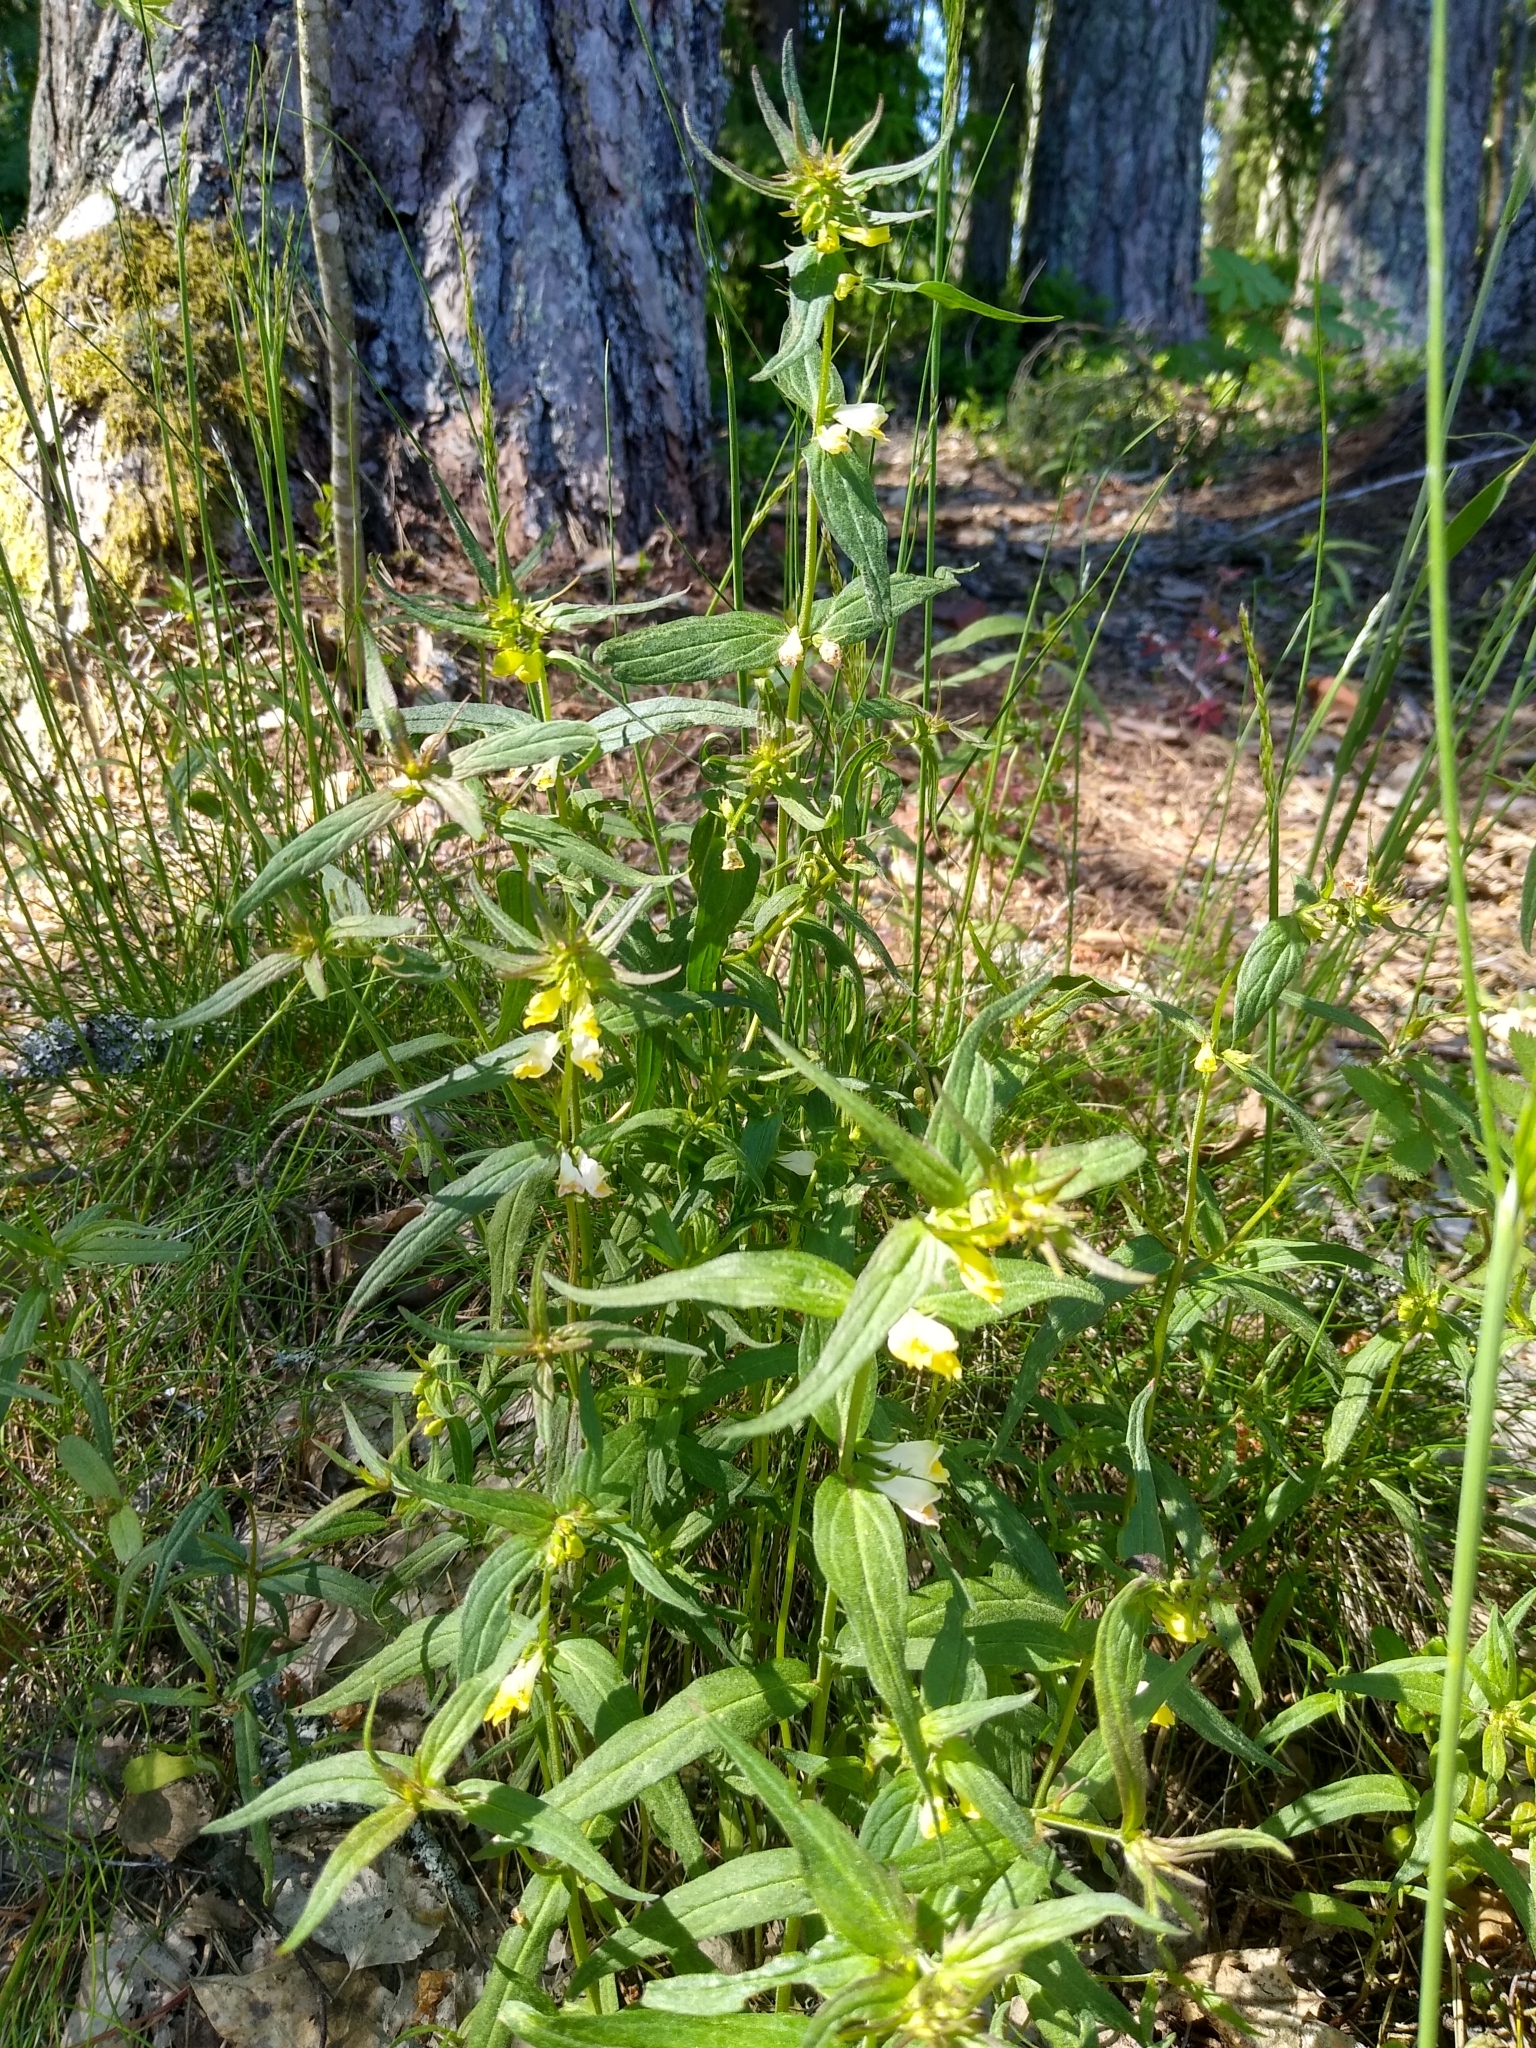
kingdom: Plantae
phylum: Tracheophyta
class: Magnoliopsida
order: Lamiales
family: Orobanchaceae
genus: Melampyrum
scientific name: Melampyrum pratense
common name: Common cow-wheat
